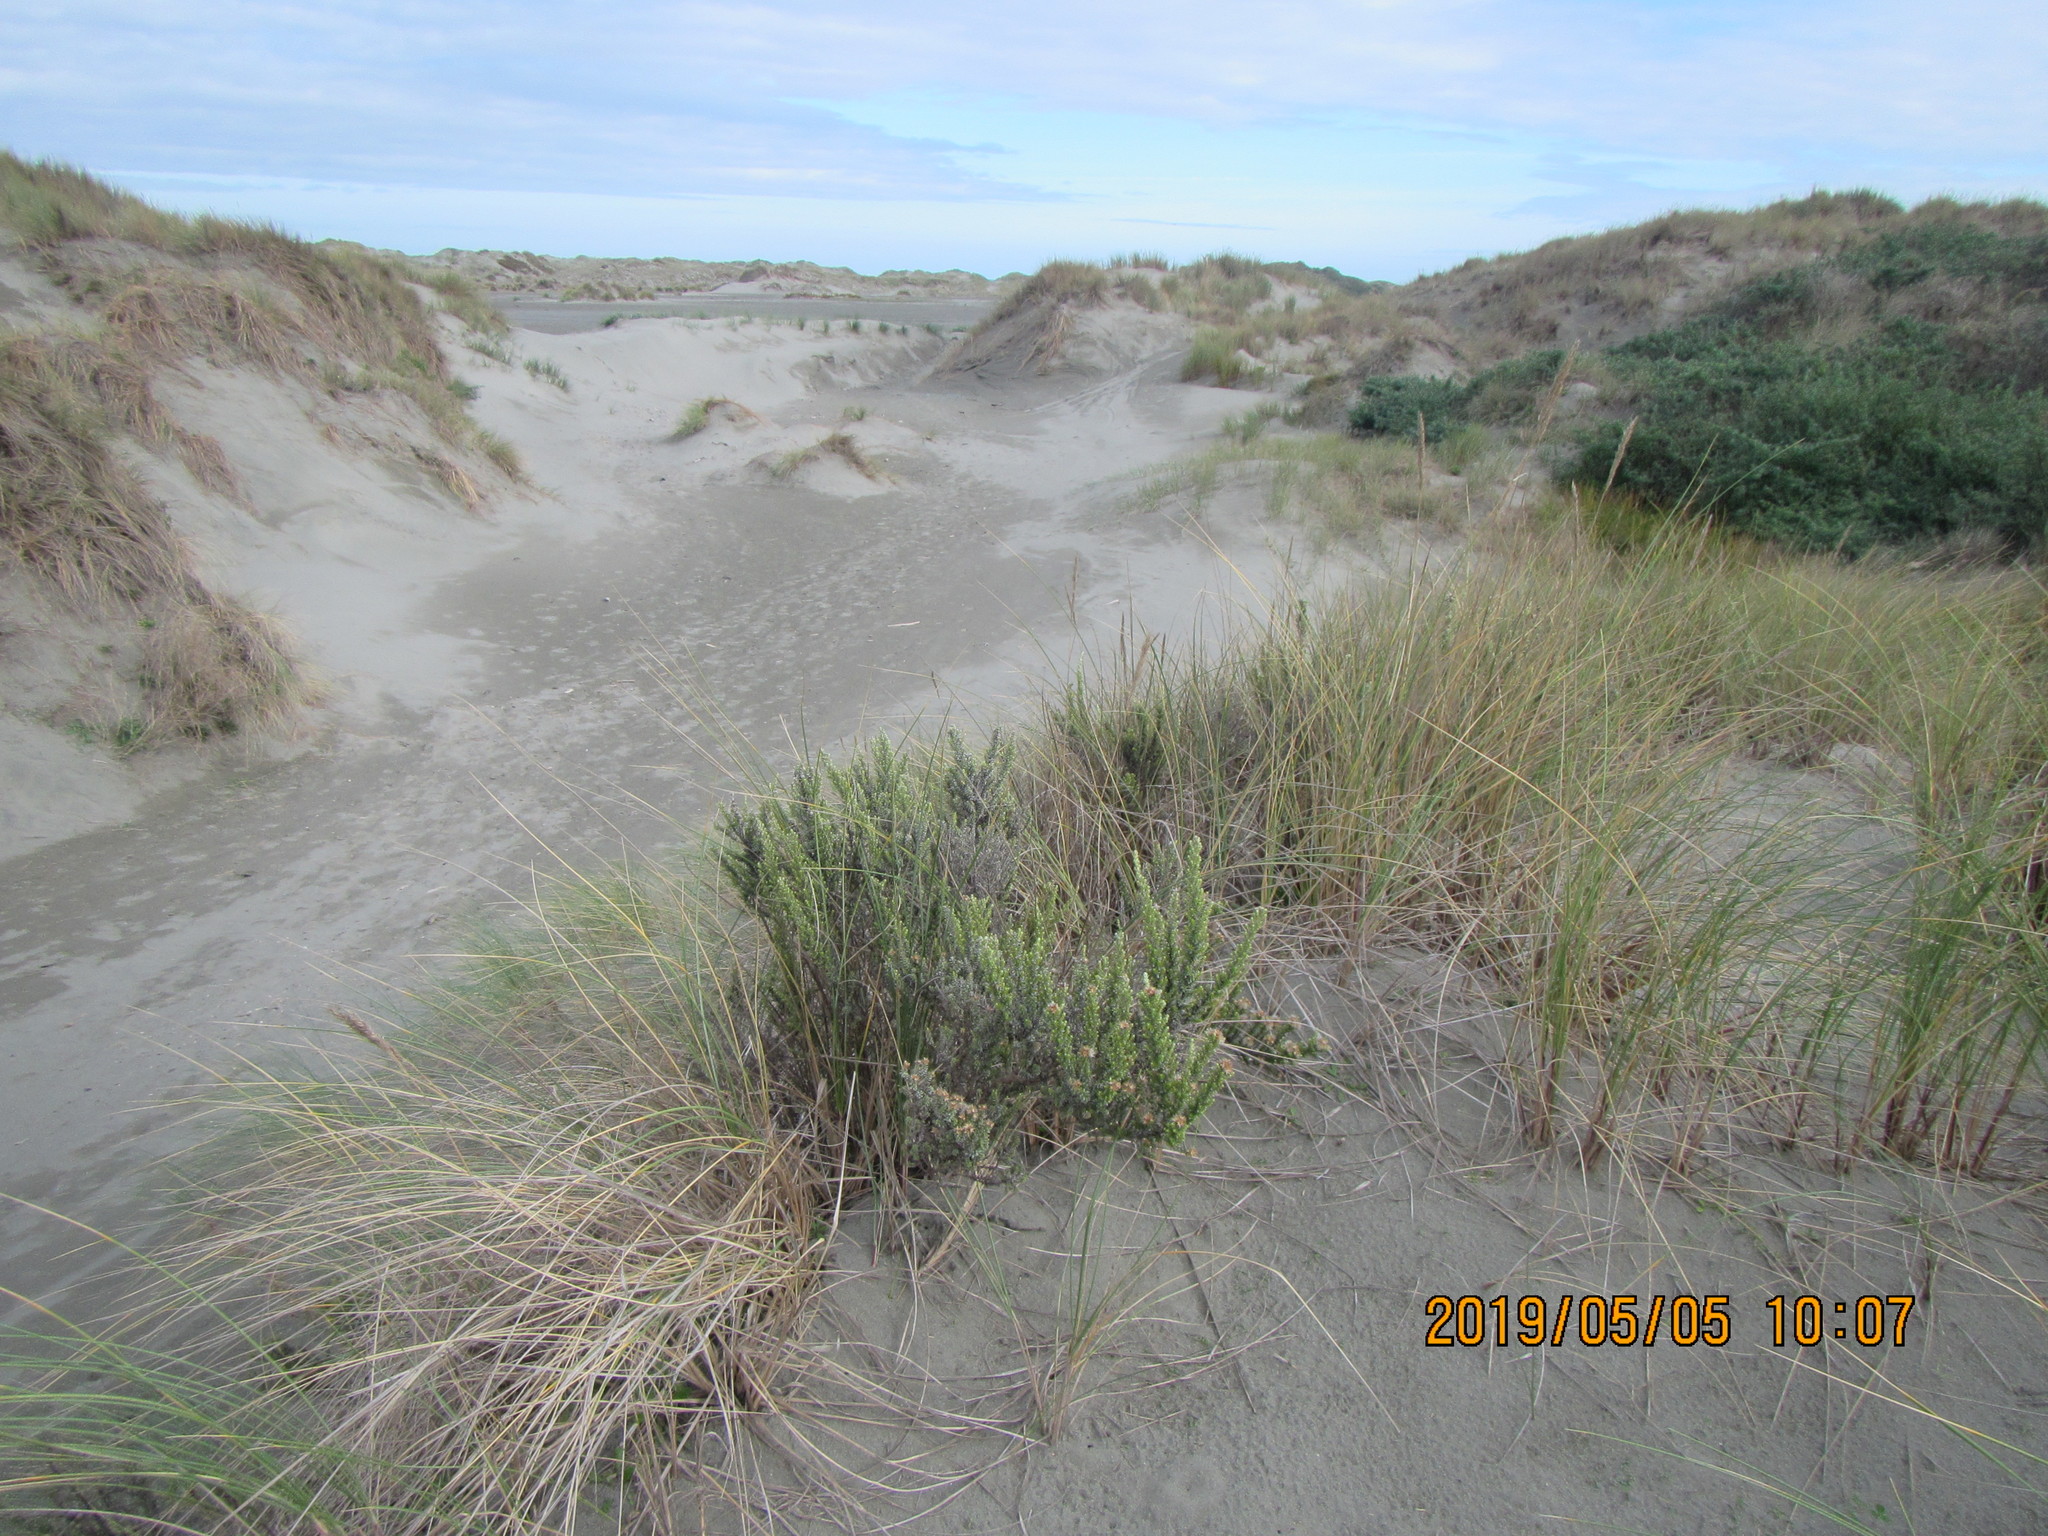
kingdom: Plantae
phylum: Tracheophyta
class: Magnoliopsida
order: Asterales
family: Asteraceae
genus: Ozothamnus
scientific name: Ozothamnus leptophyllus
